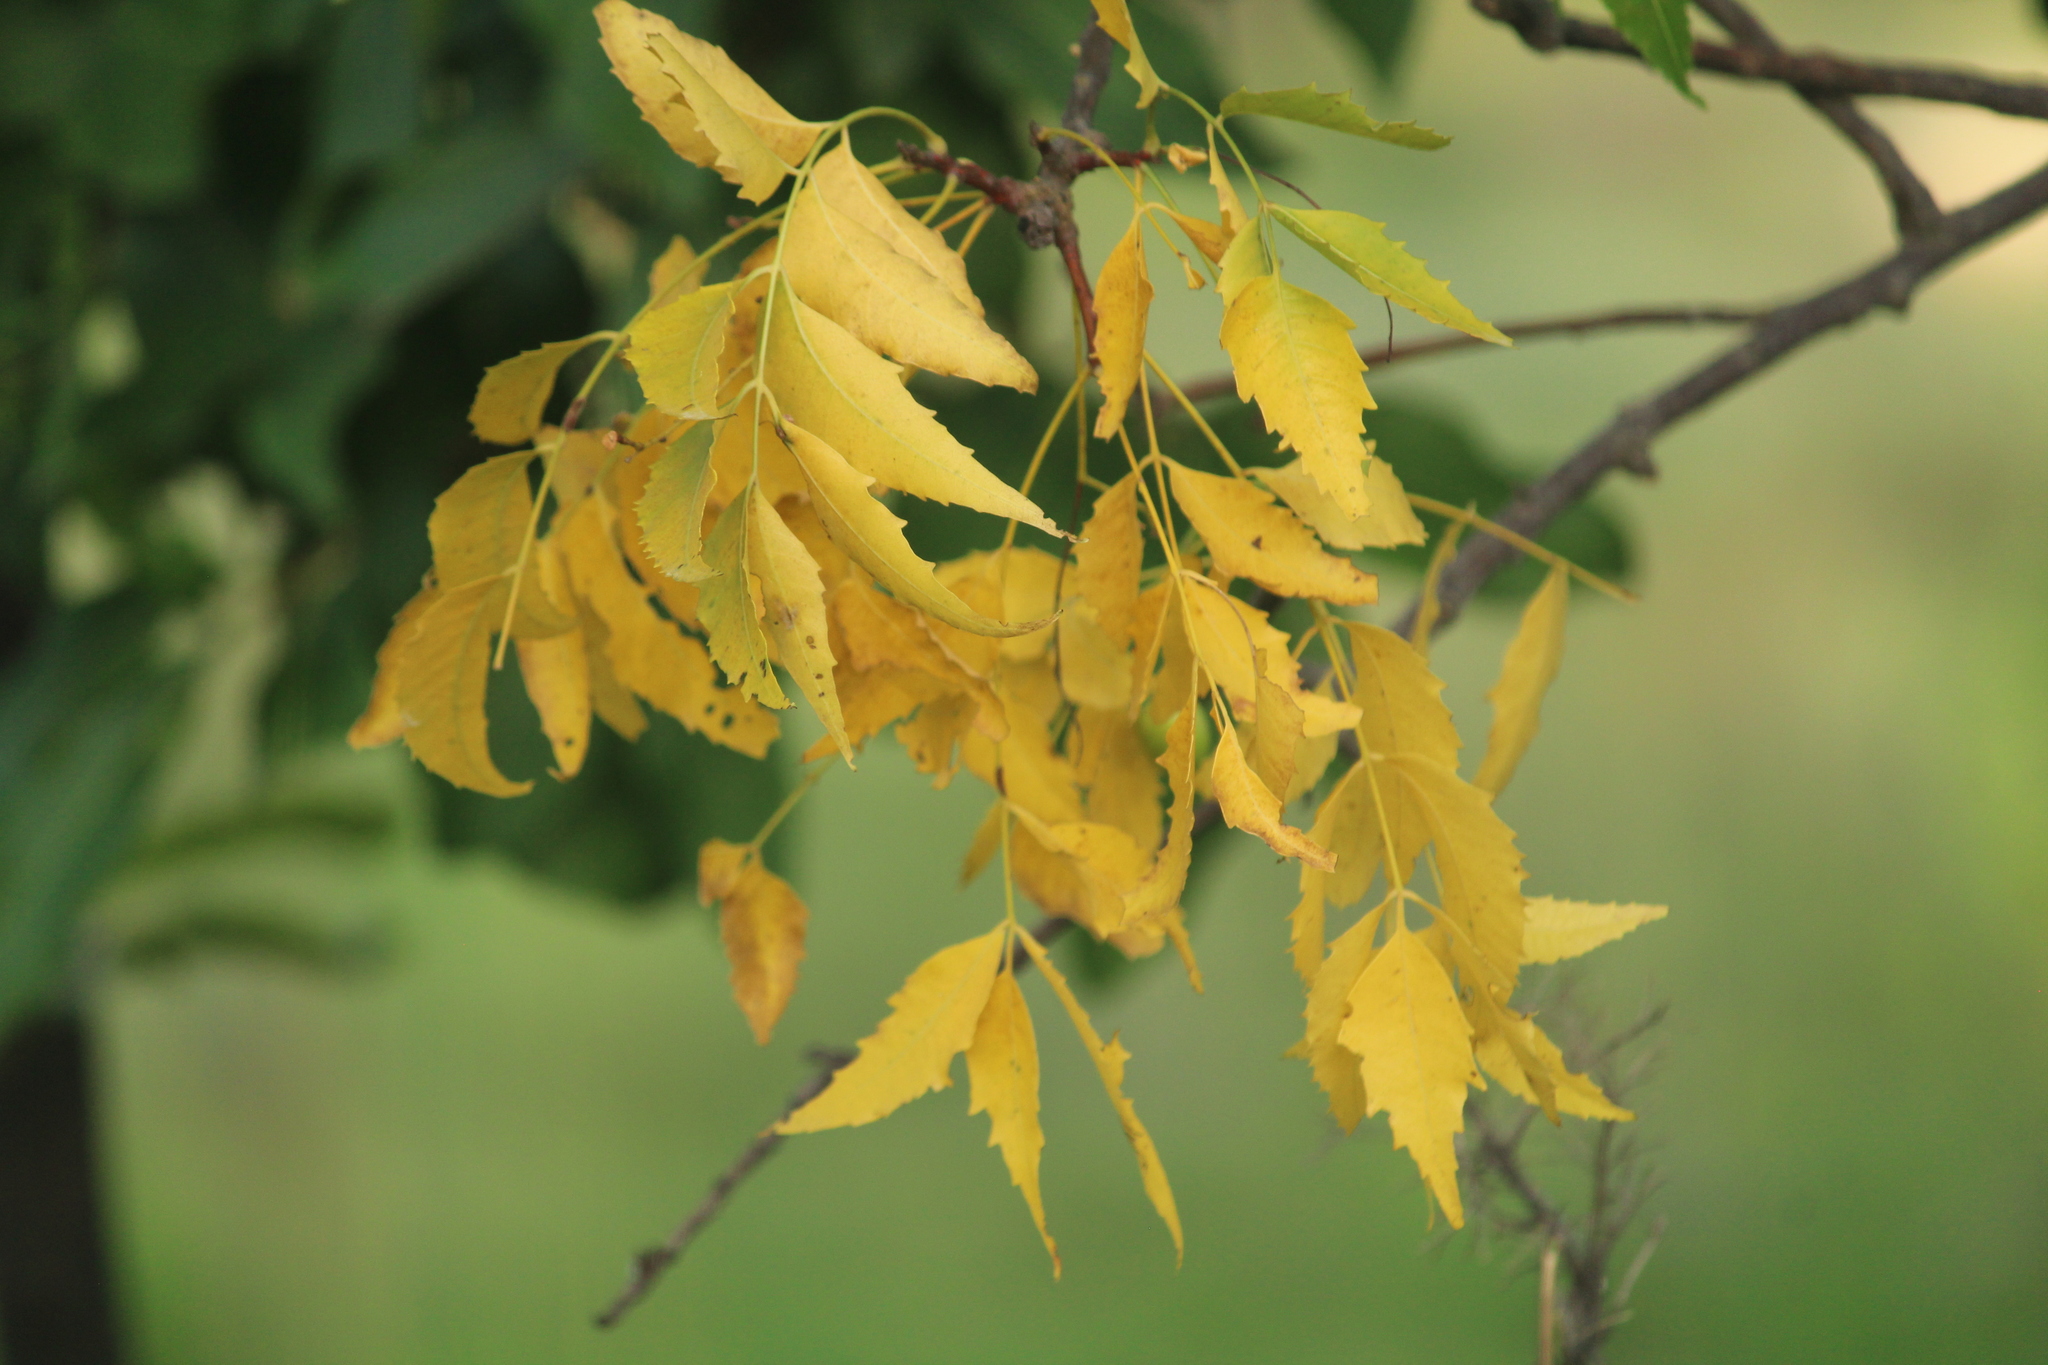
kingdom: Plantae
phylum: Tracheophyta
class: Magnoliopsida
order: Sapindales
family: Meliaceae
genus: Azadirachta
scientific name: Azadirachta indica
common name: Neem
